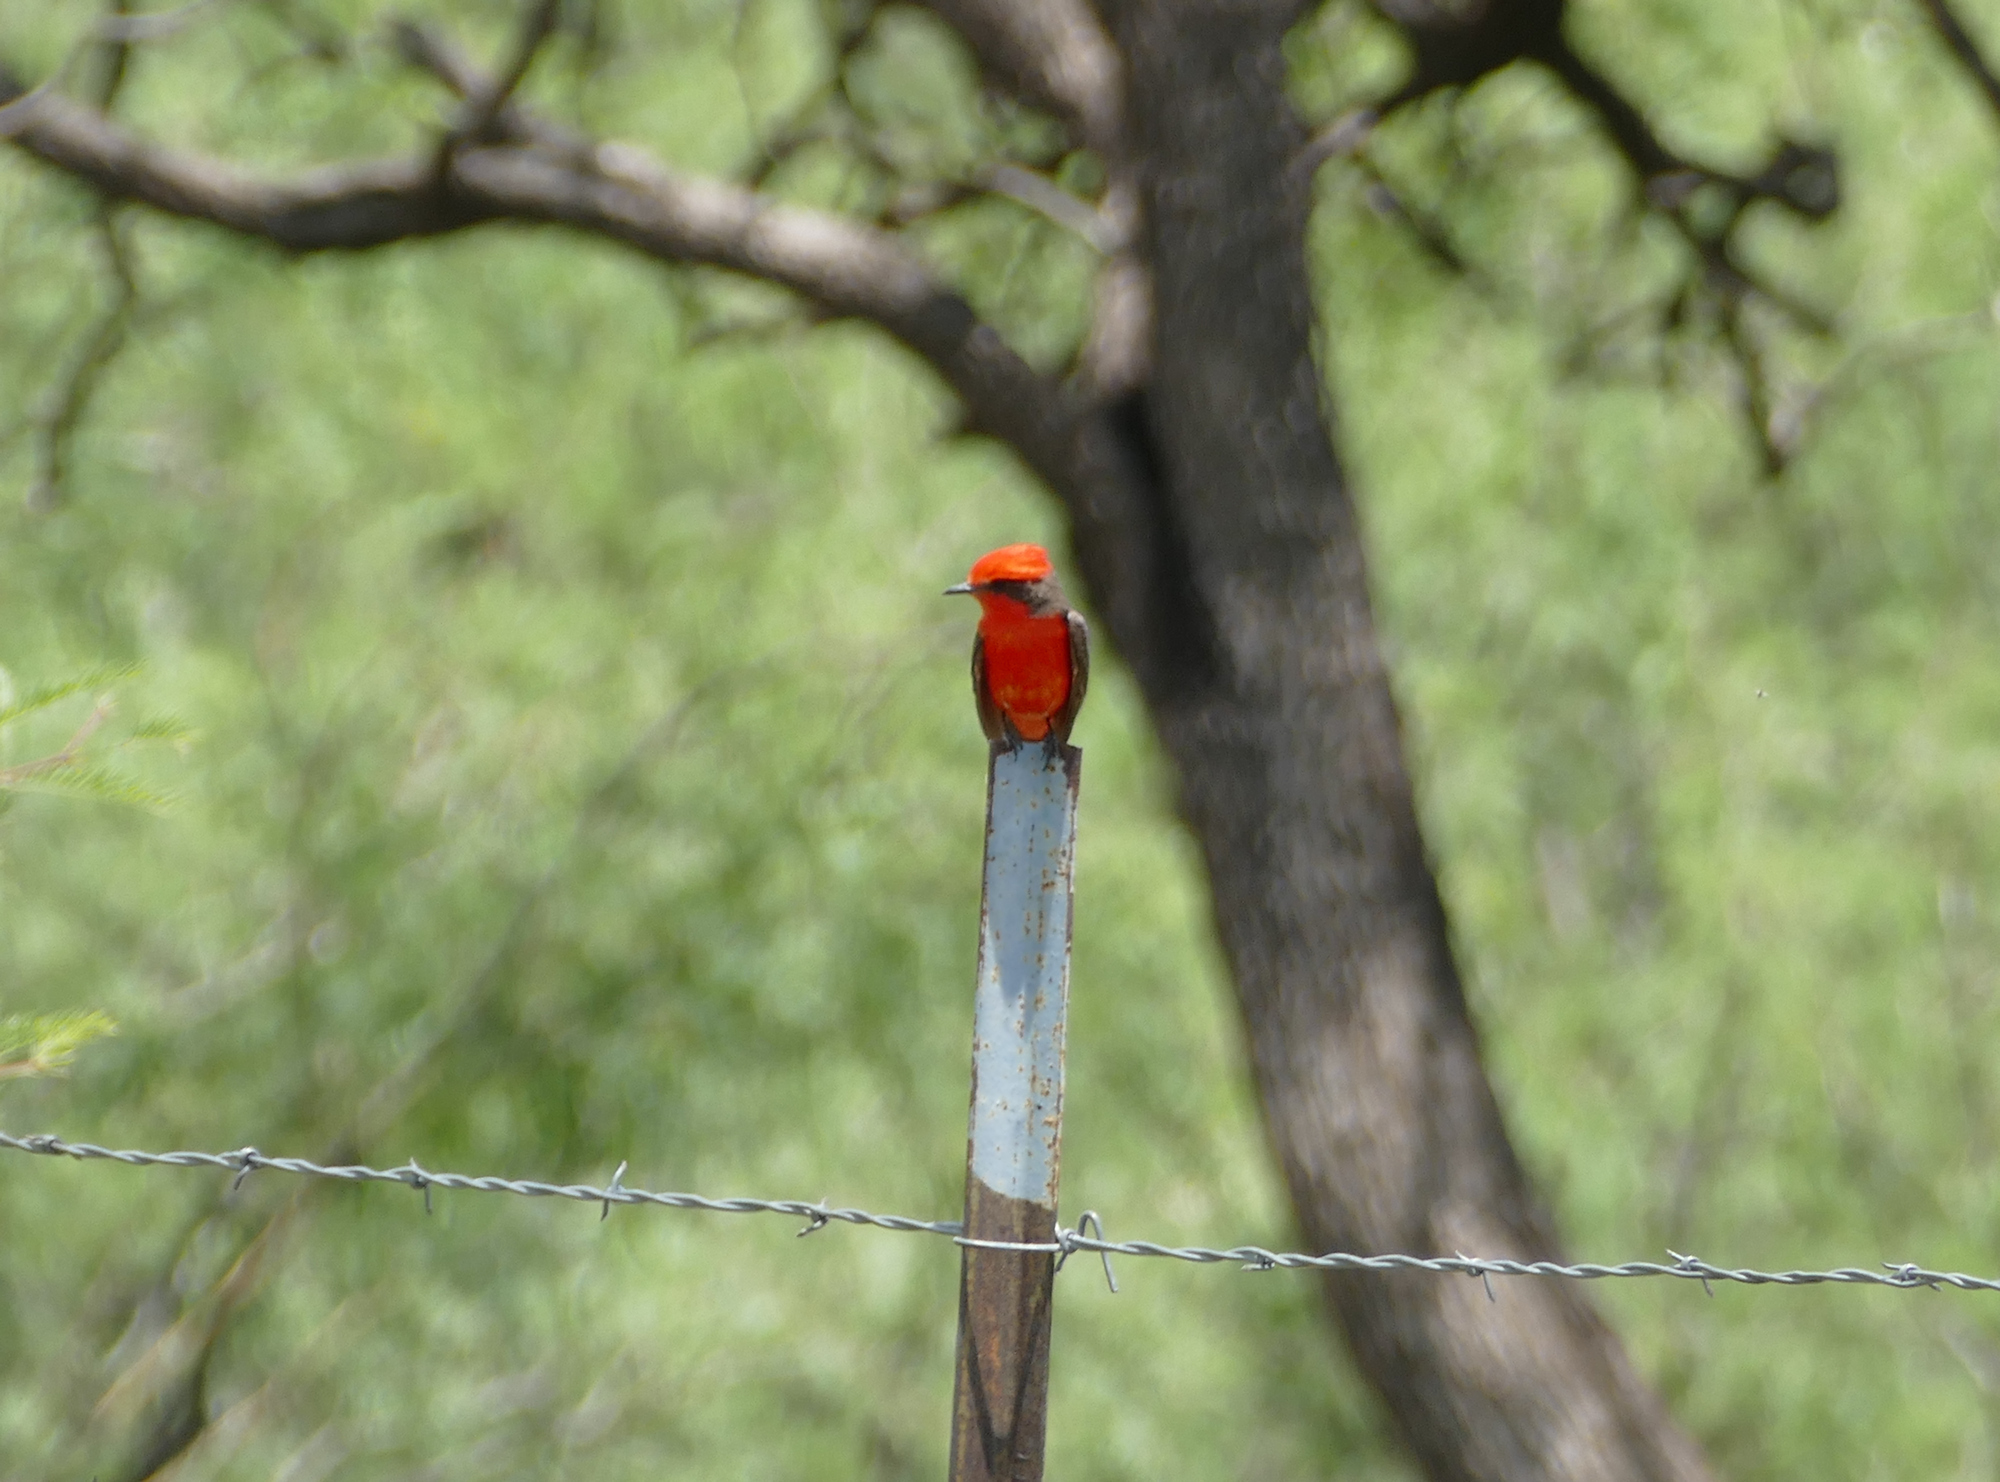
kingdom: Animalia
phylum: Chordata
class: Aves
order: Passeriformes
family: Tyrannidae
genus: Pyrocephalus
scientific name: Pyrocephalus rubinus
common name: Vermilion flycatcher
